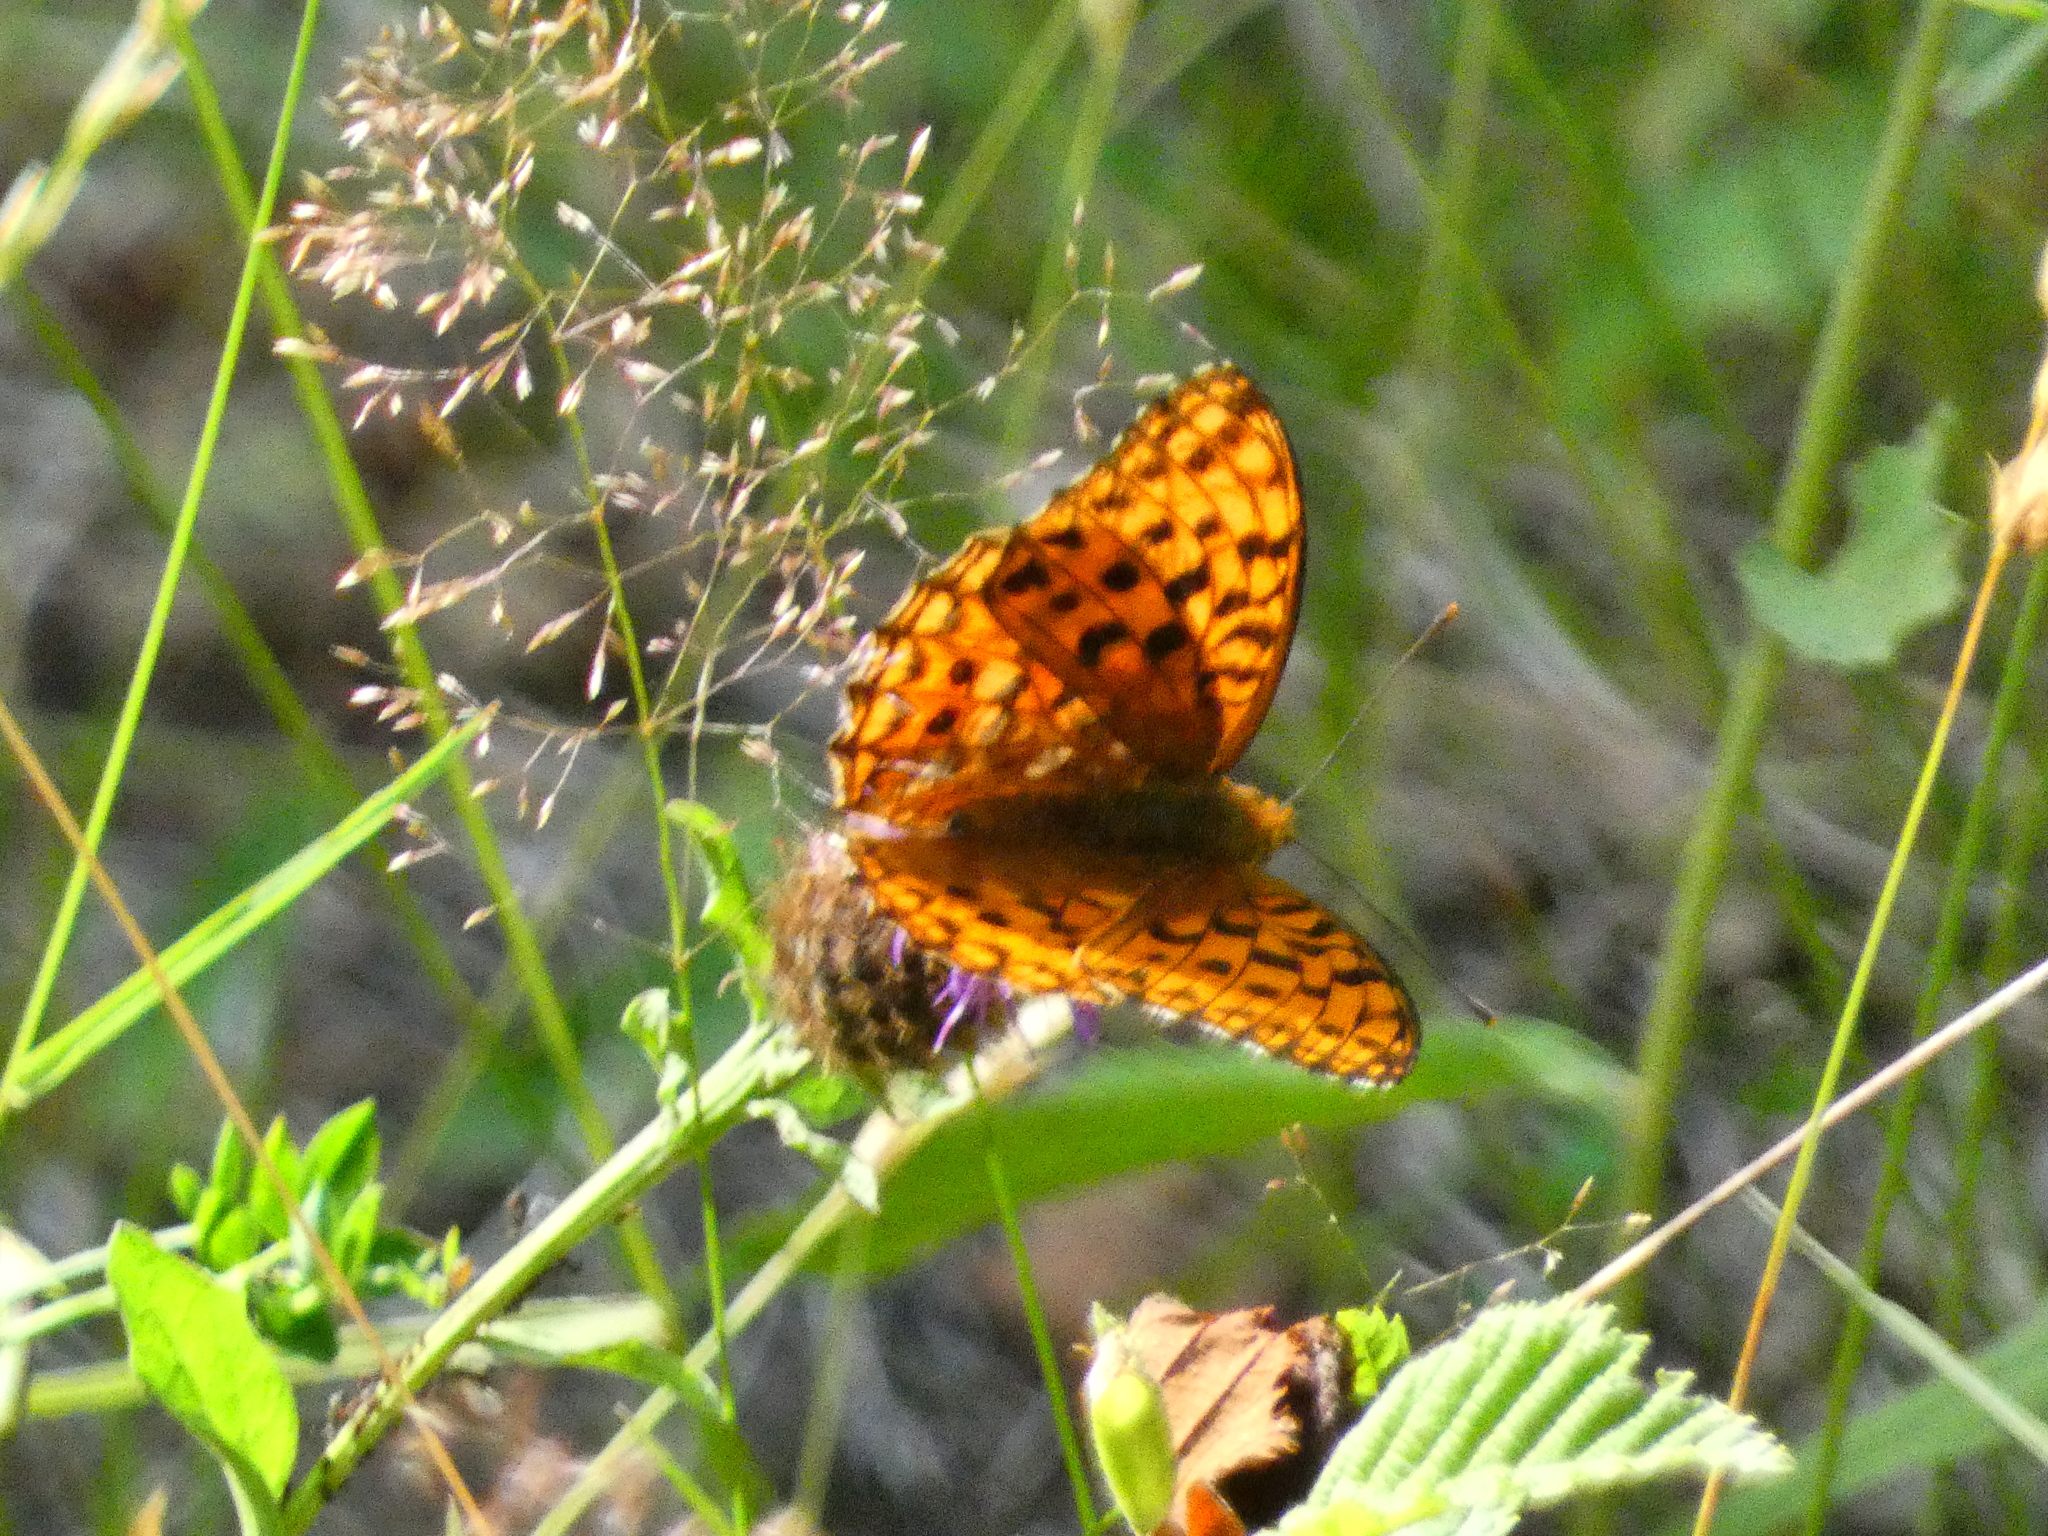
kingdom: Animalia
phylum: Arthropoda
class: Insecta
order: Lepidoptera
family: Nymphalidae
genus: Fabriciana
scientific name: Fabriciana adippe
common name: High brown fritillary
